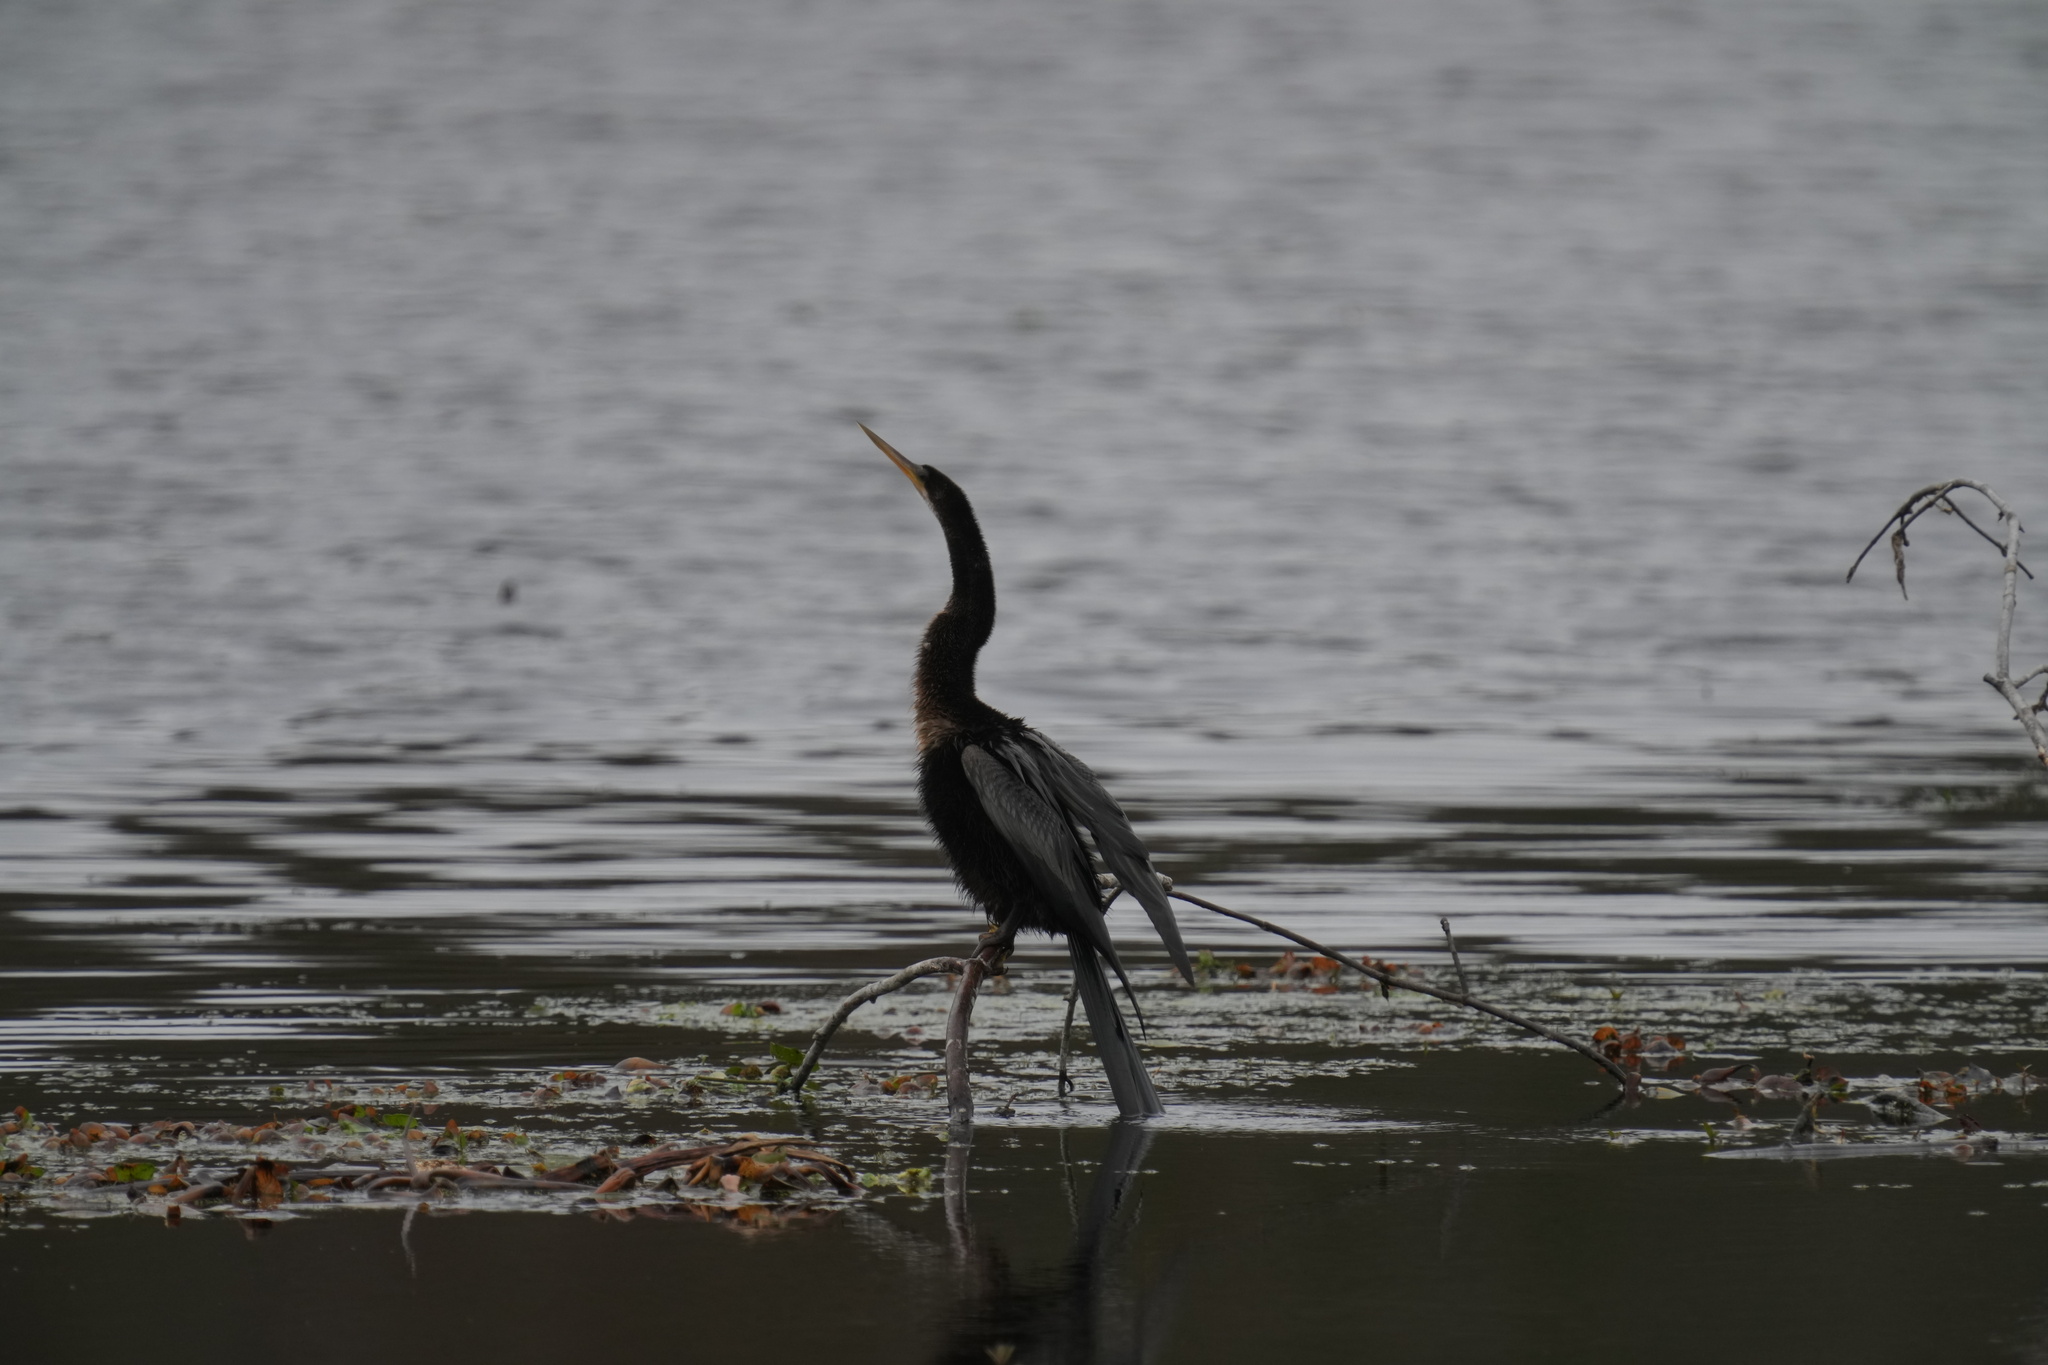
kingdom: Animalia
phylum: Chordata
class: Aves
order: Suliformes
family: Anhingidae
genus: Anhinga
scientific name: Anhinga anhinga
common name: Anhinga
